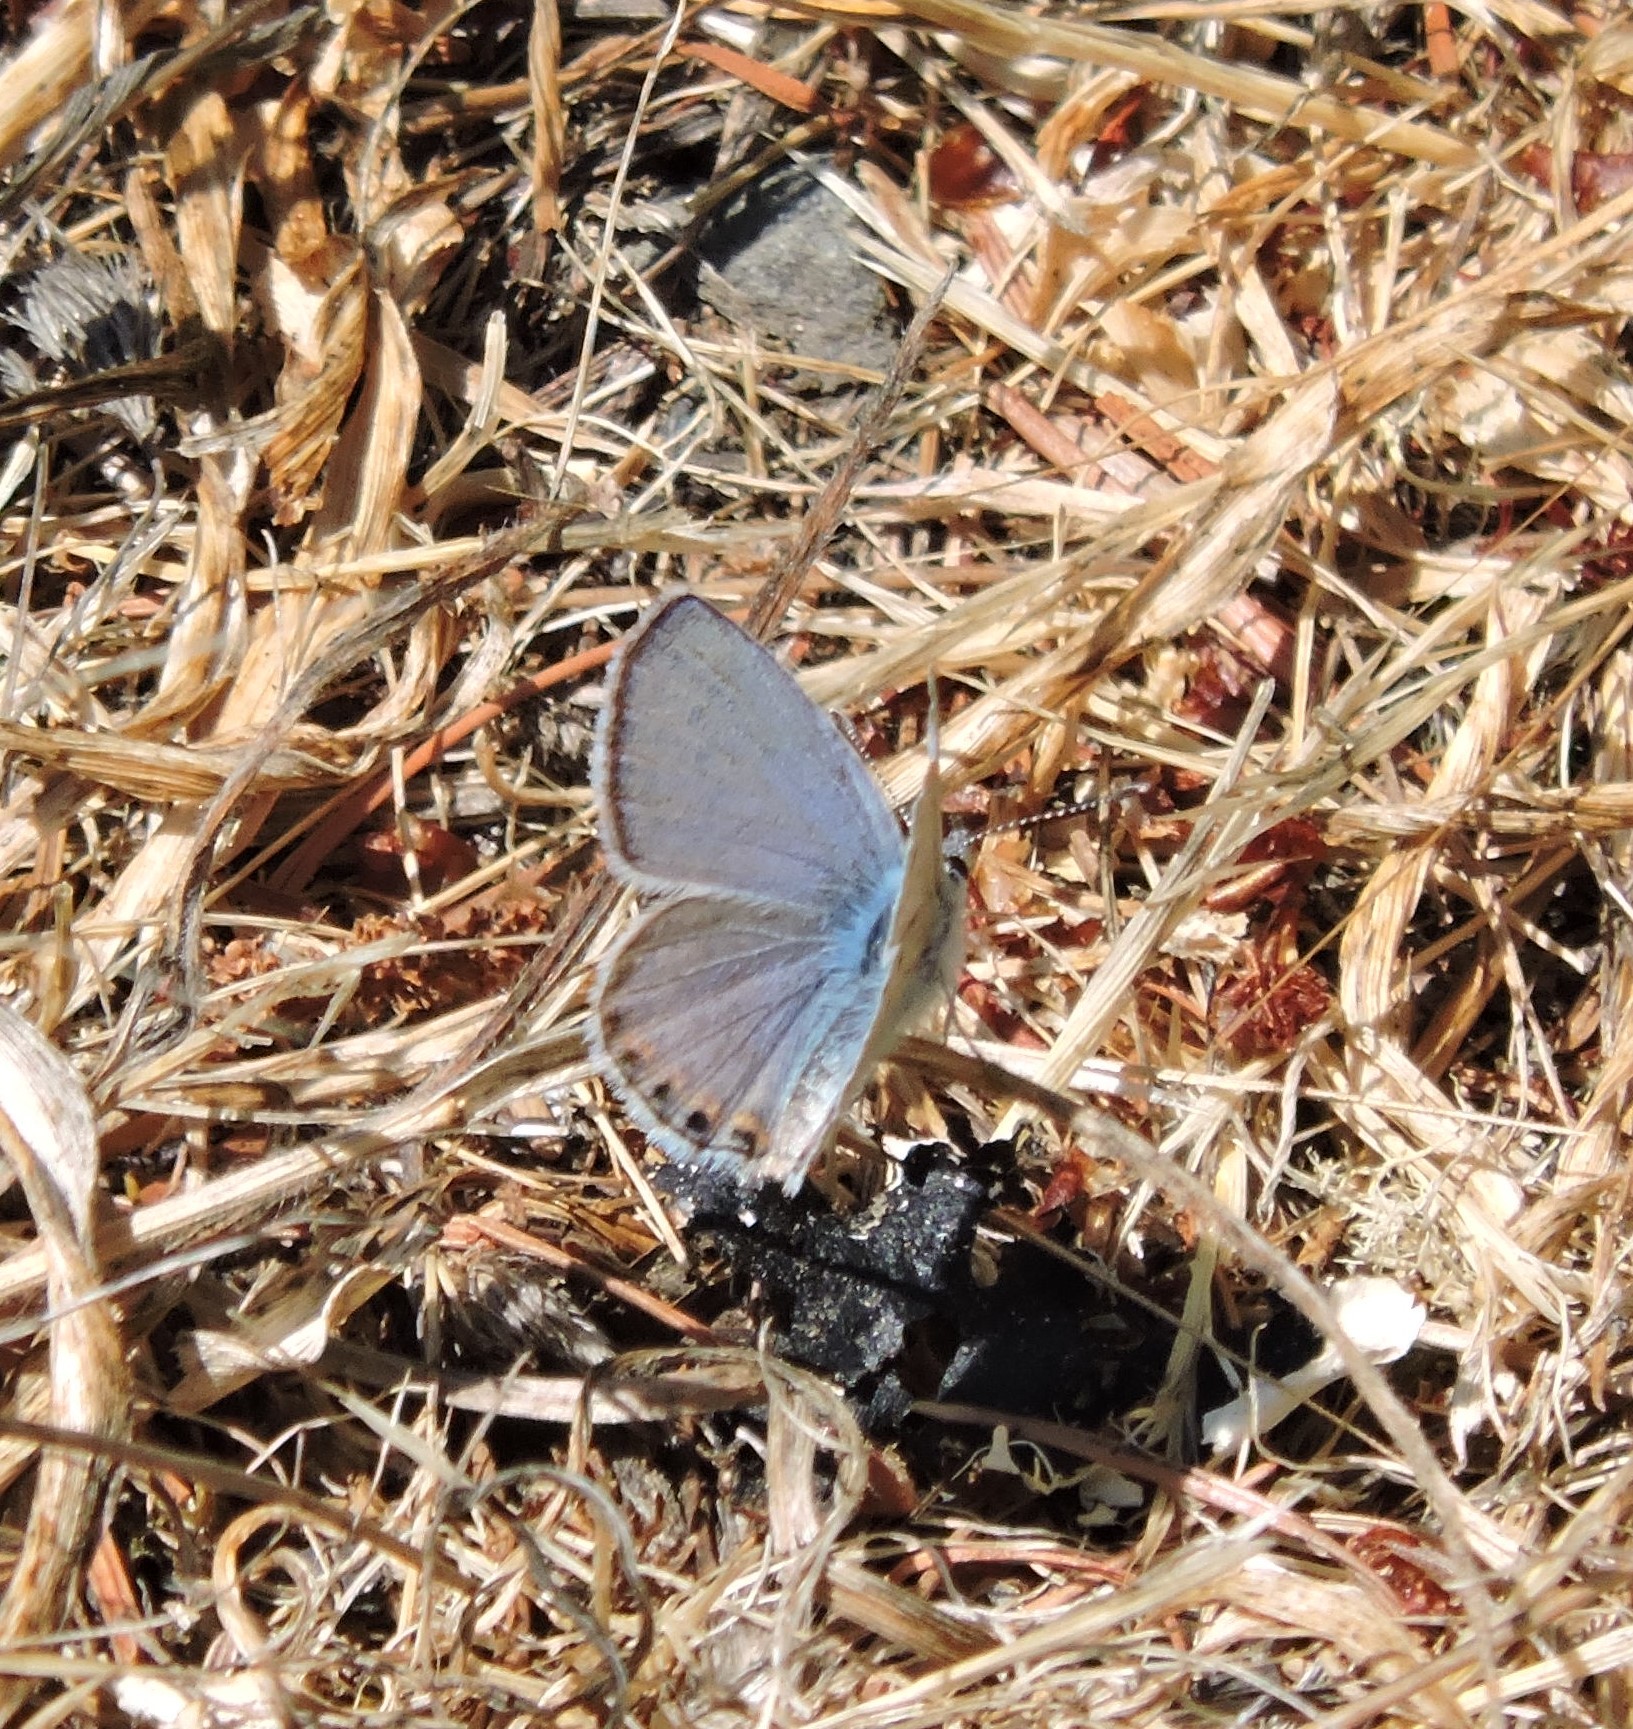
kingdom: Animalia
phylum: Arthropoda
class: Insecta
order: Lepidoptera
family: Lycaenidae
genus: Icaricia
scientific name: Icaricia acmon
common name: Acmon blue
